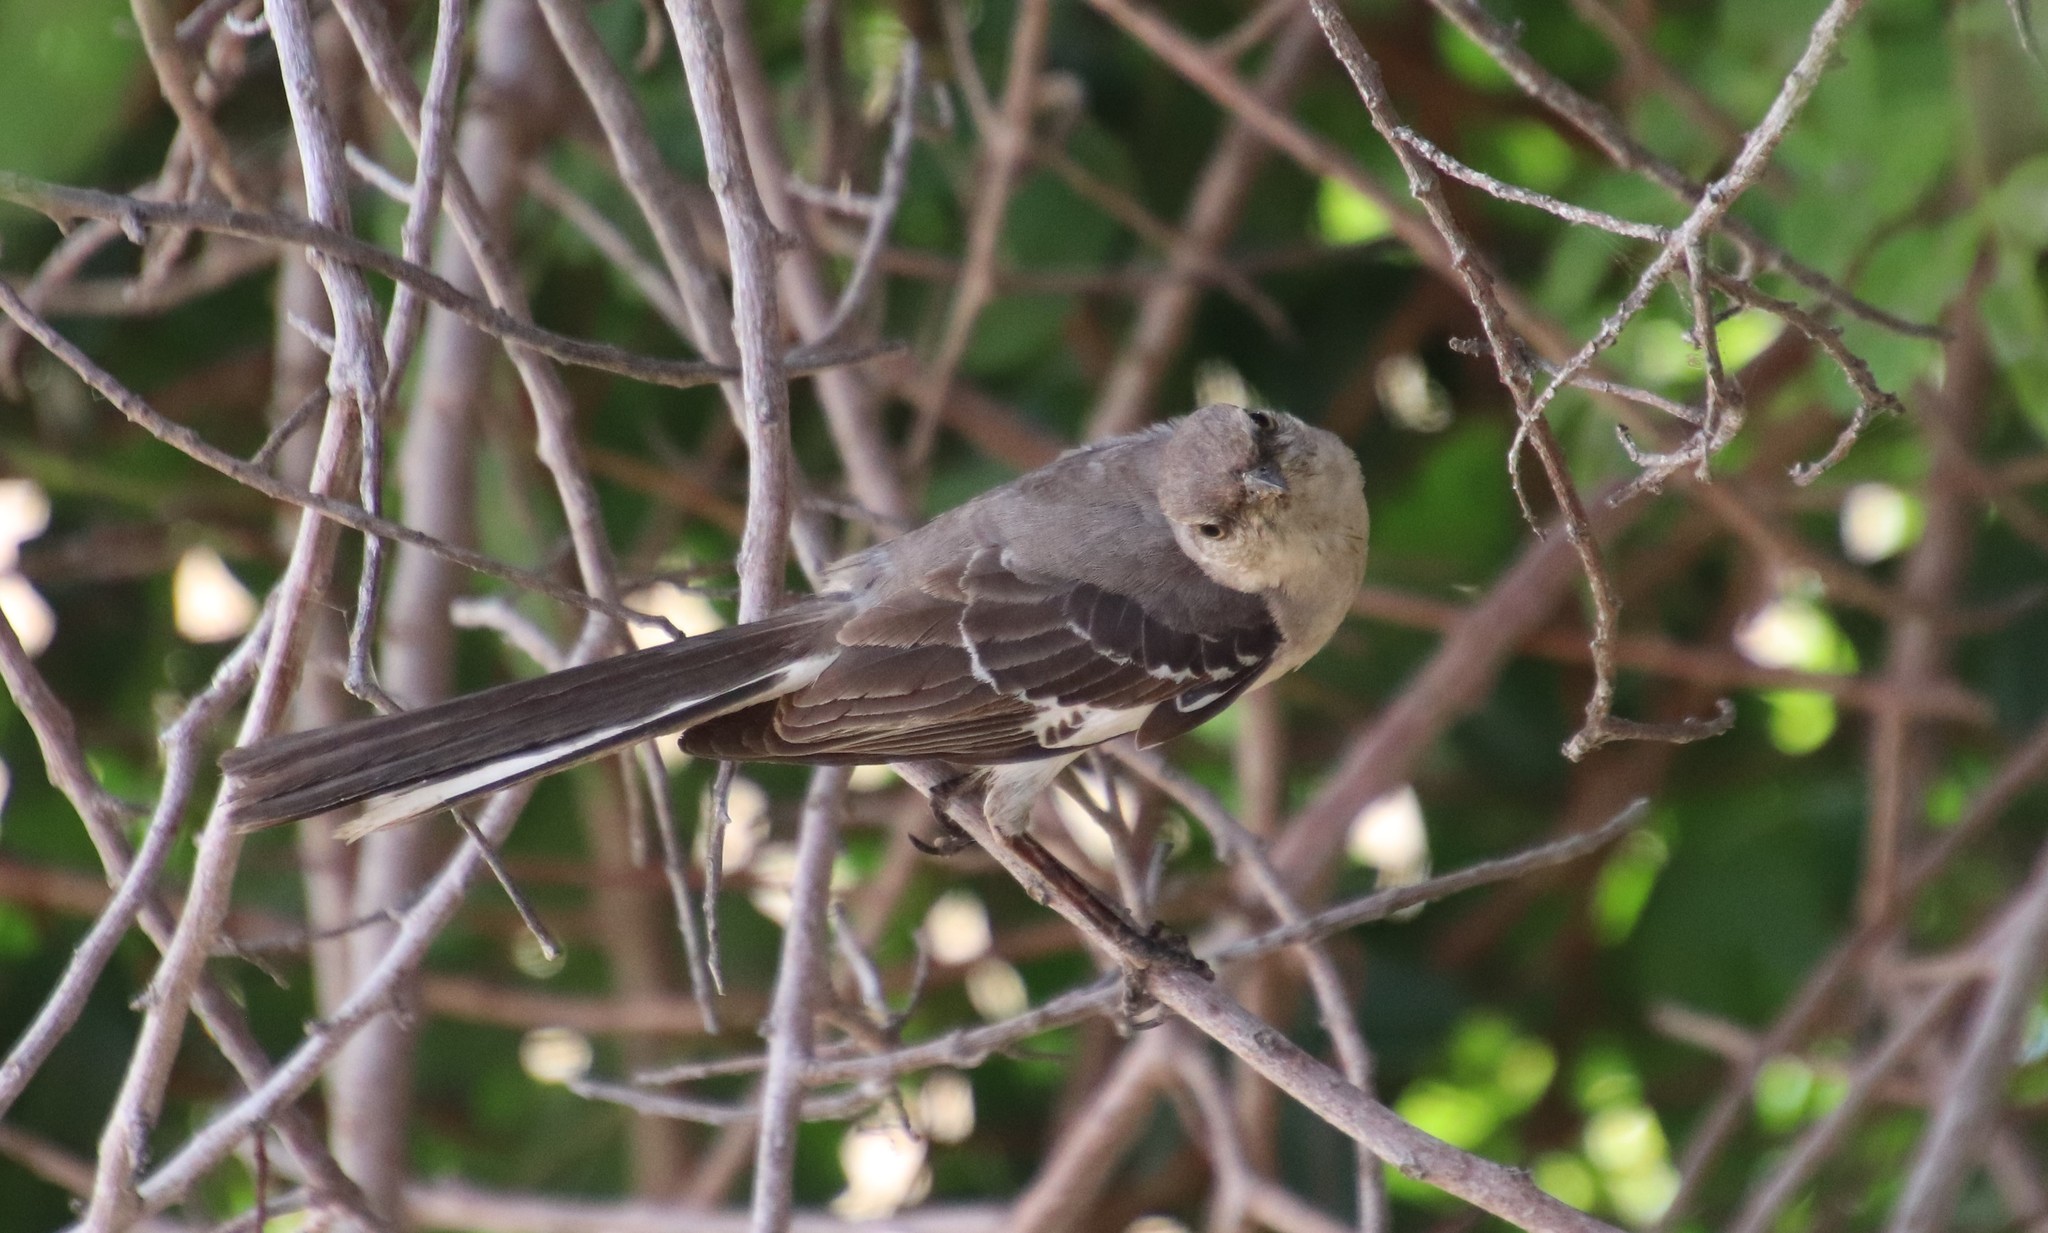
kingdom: Animalia
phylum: Chordata
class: Aves
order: Passeriformes
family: Mimidae
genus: Mimus
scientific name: Mimus polyglottos
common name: Northern mockingbird
